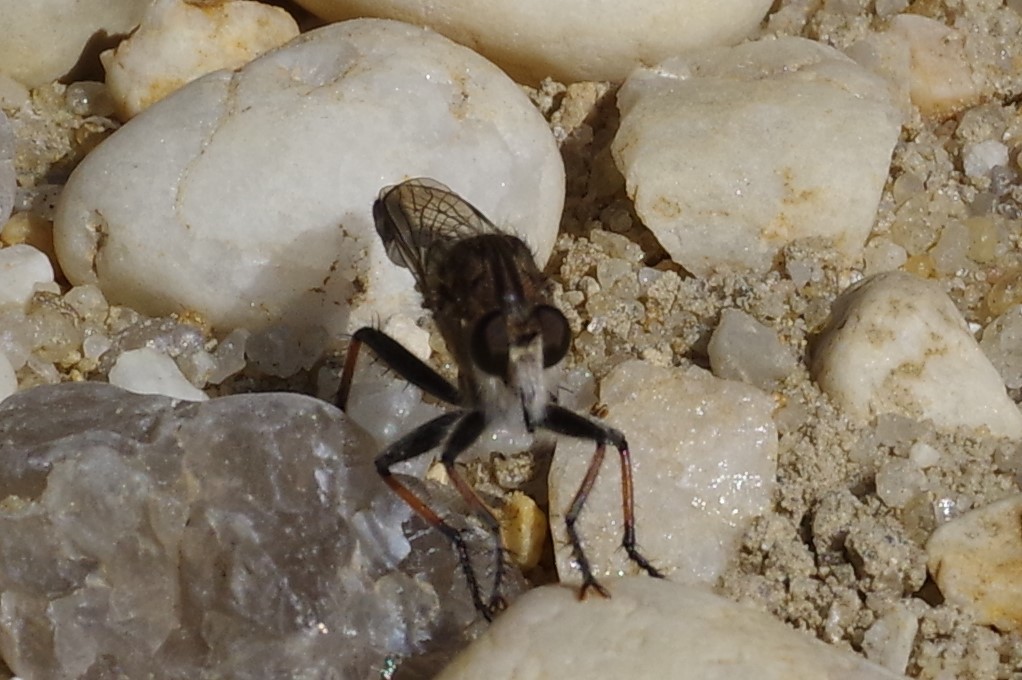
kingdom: Animalia
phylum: Arthropoda
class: Insecta
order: Diptera
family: Asilidae
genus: Efferia
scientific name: Efferia albibarbis
